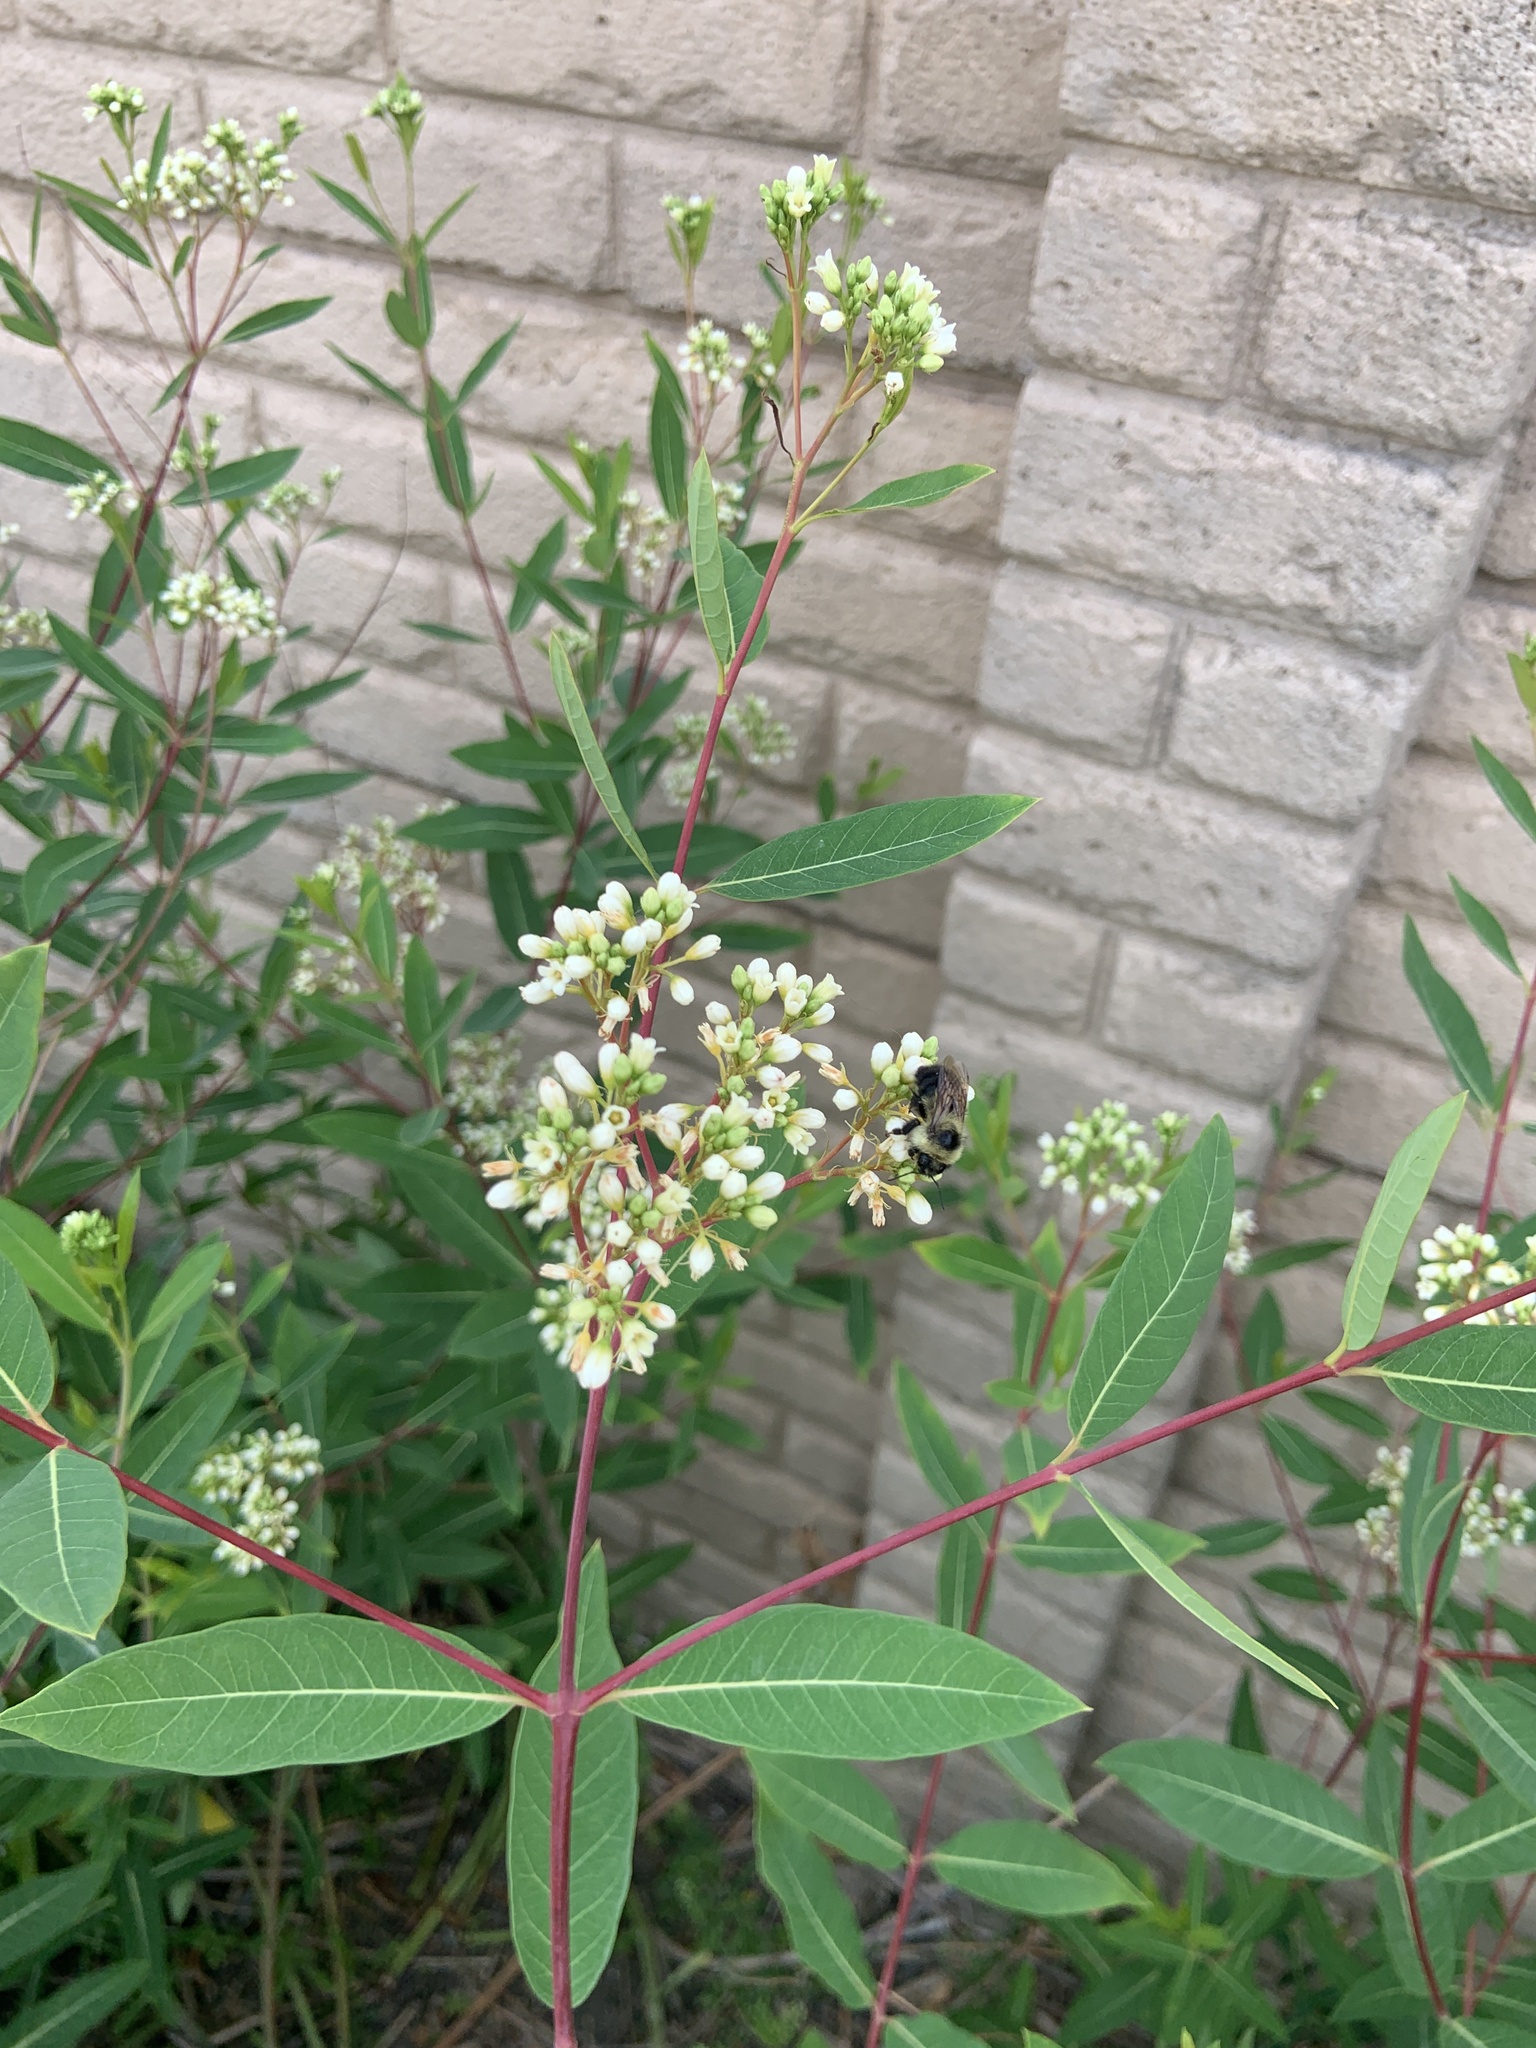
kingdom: Animalia
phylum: Arthropoda
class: Insecta
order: Hymenoptera
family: Apidae
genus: Bombus
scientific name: Bombus rufocinctus
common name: Red-belted bumble bee
